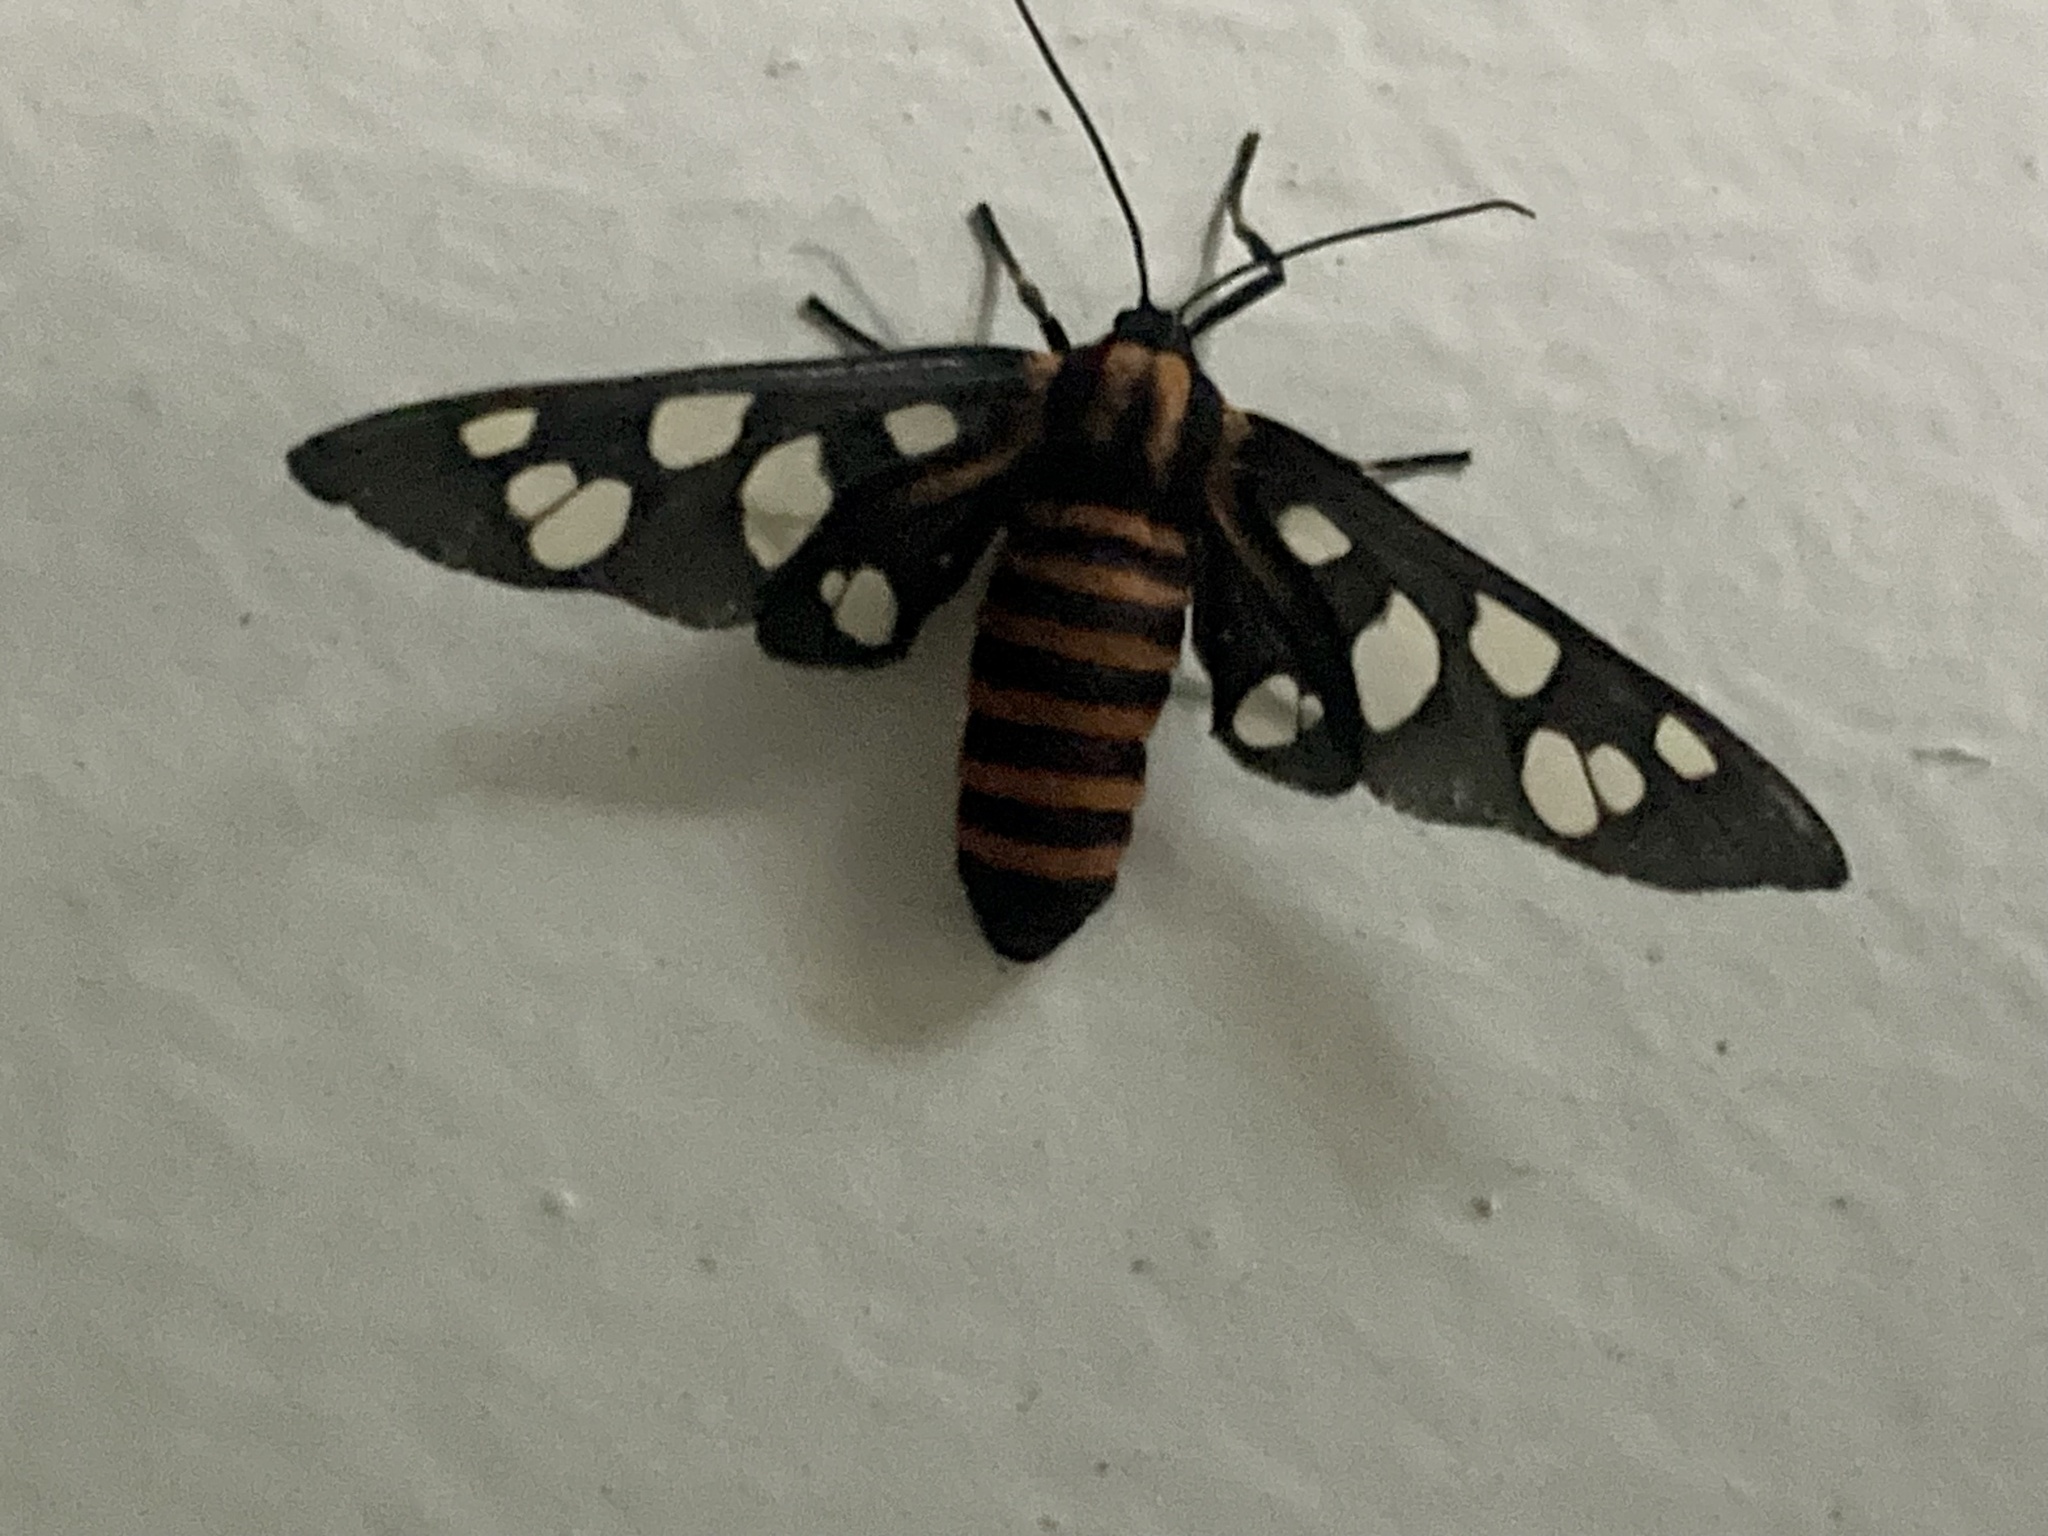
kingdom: Animalia
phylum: Arthropoda
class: Insecta
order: Lepidoptera
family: Erebidae
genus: Amata
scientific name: Amata passalis
